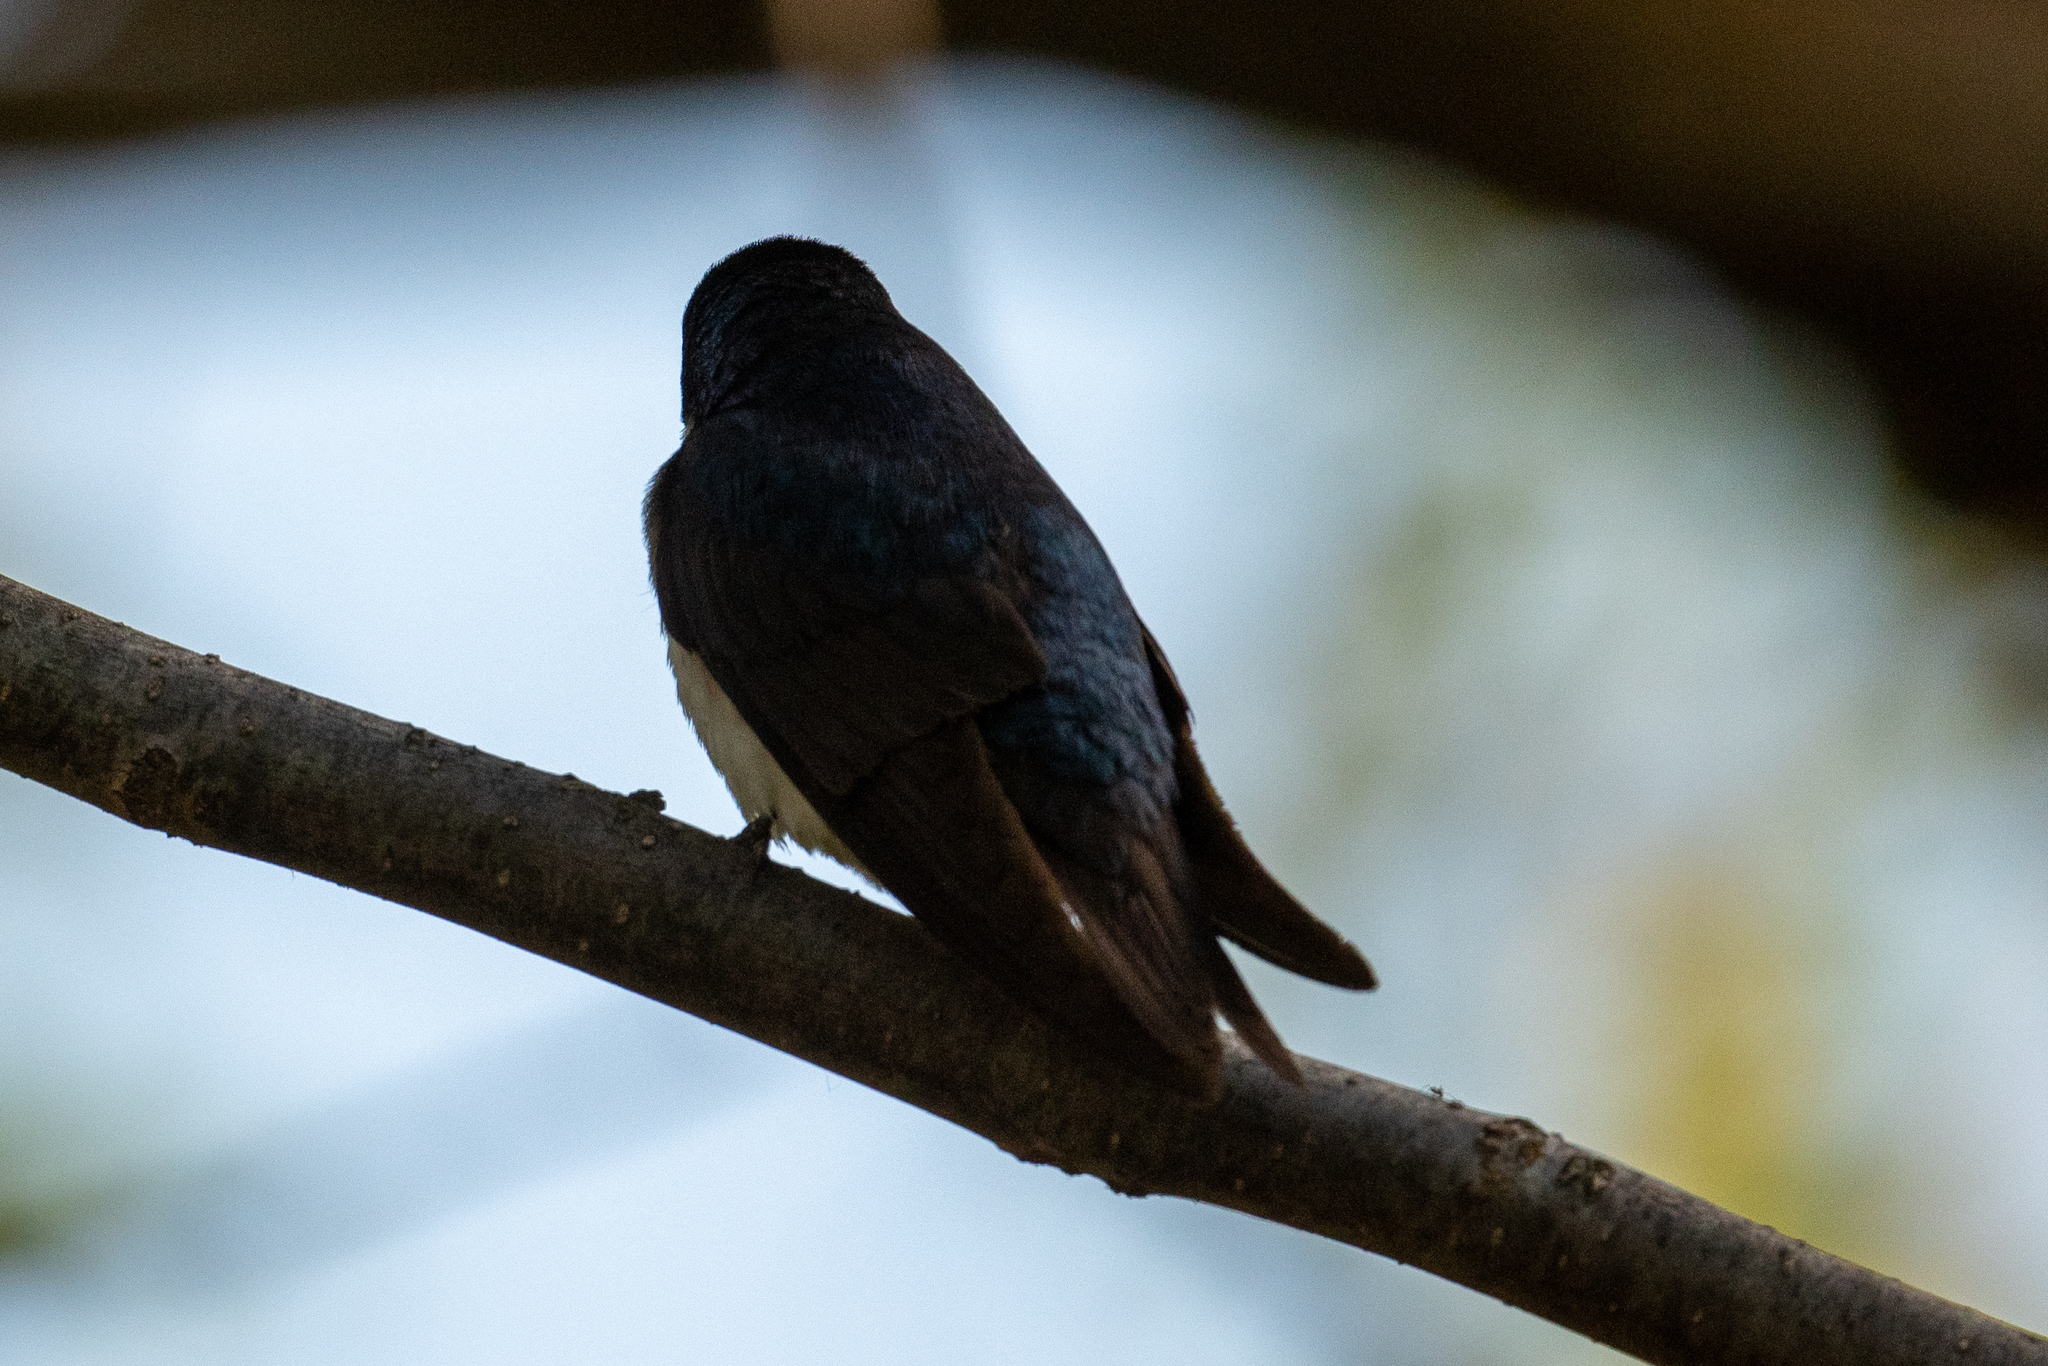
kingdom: Animalia
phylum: Chordata
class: Aves
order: Passeriformes
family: Hirundinidae
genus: Tachycineta
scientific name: Tachycineta bicolor
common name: Tree swallow
